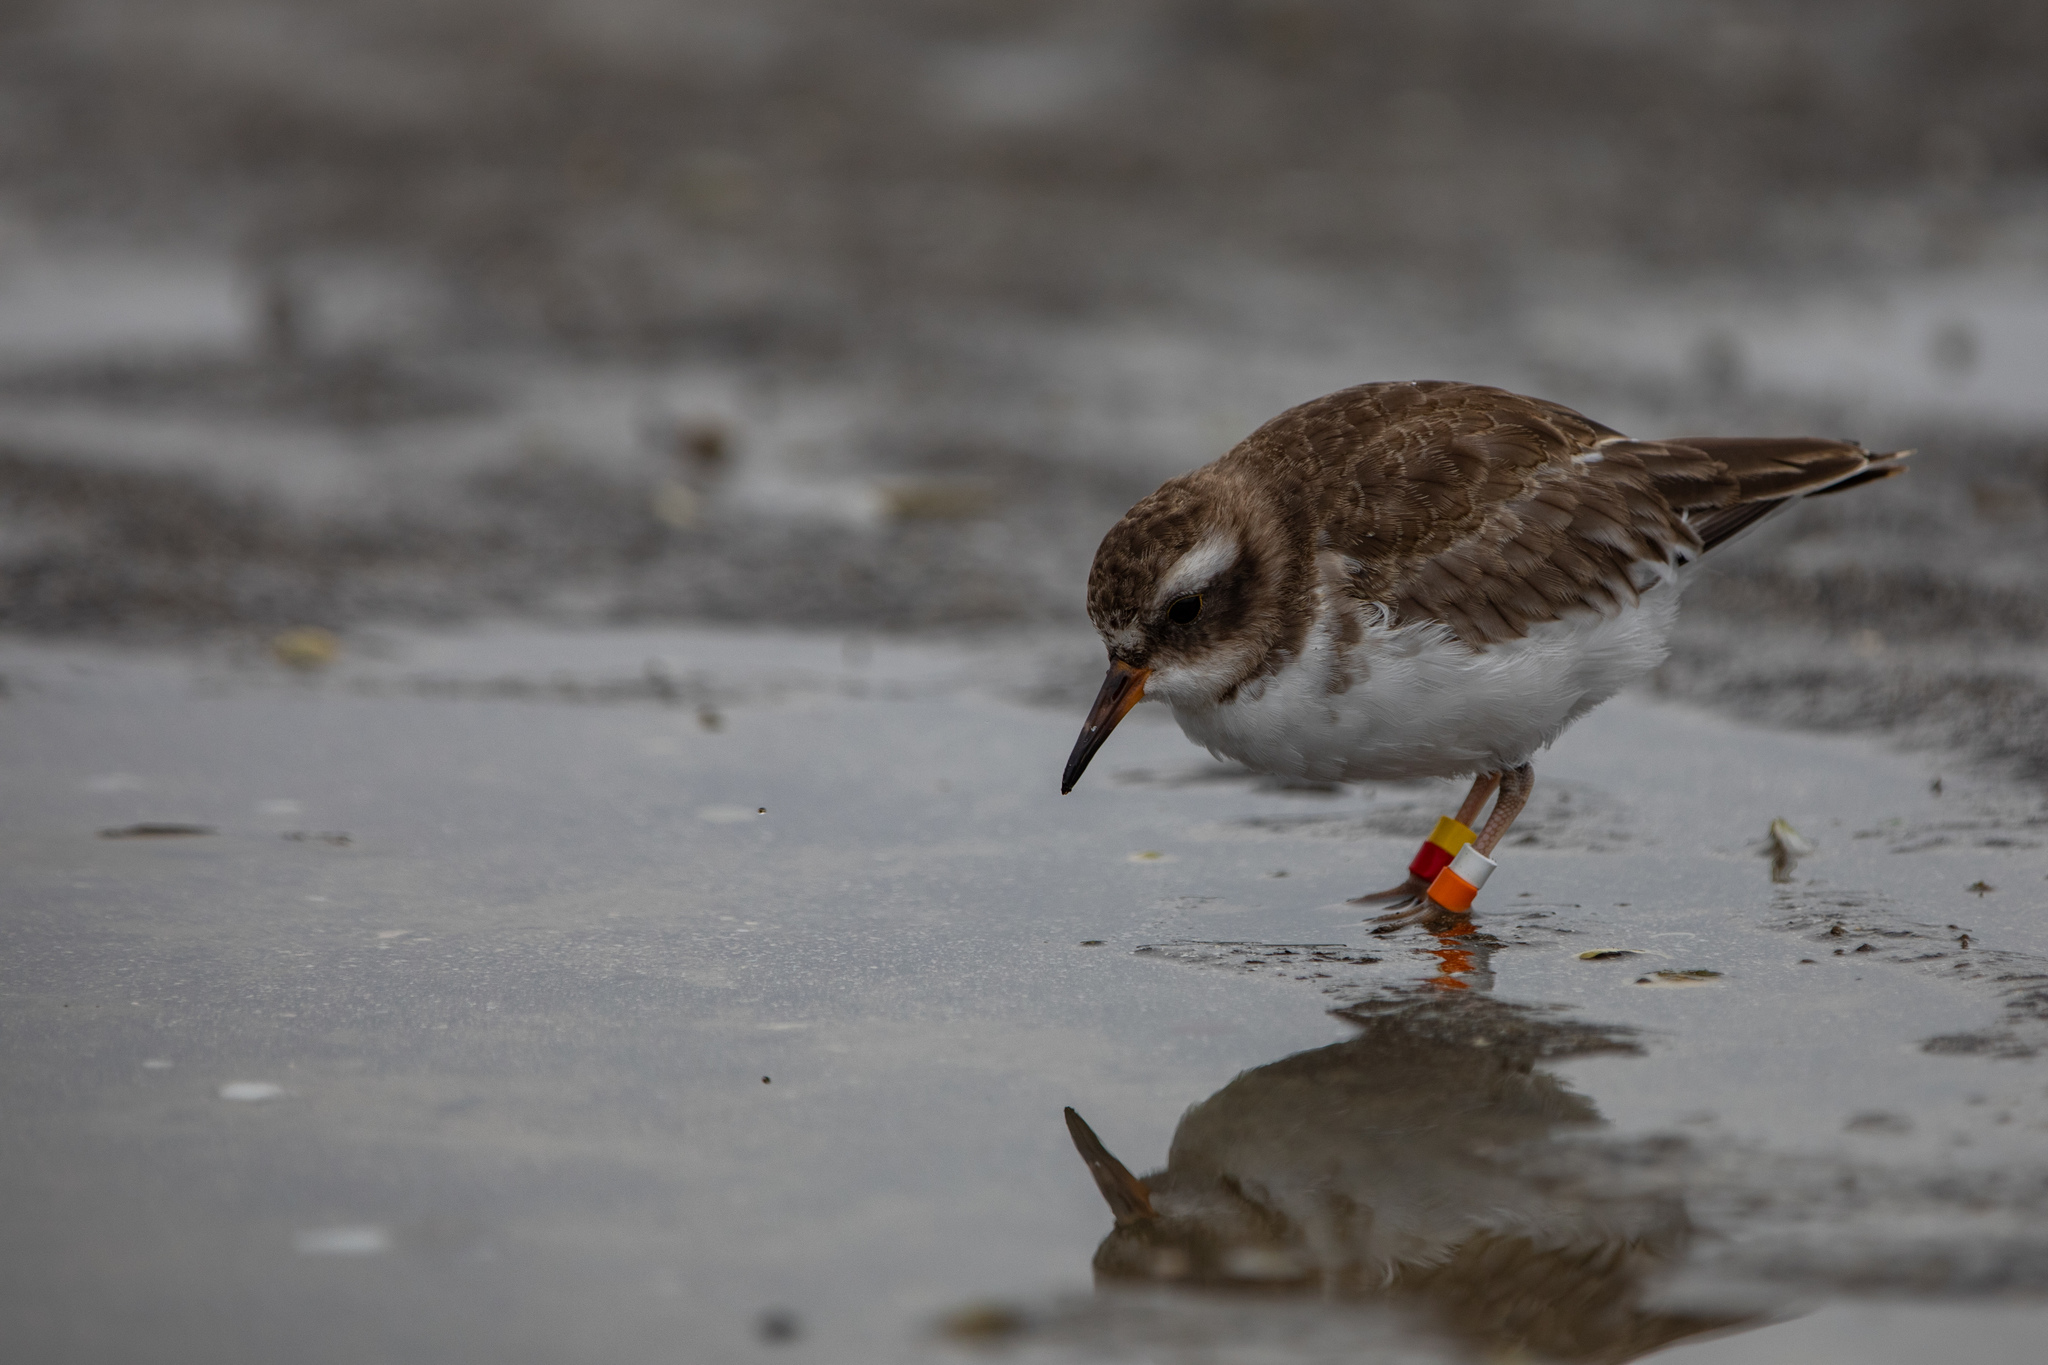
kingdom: Animalia
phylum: Chordata
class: Aves
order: Charadriiformes
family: Charadriidae
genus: Thinornis
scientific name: Thinornis novaeseelandiae
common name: Shore dotterel
